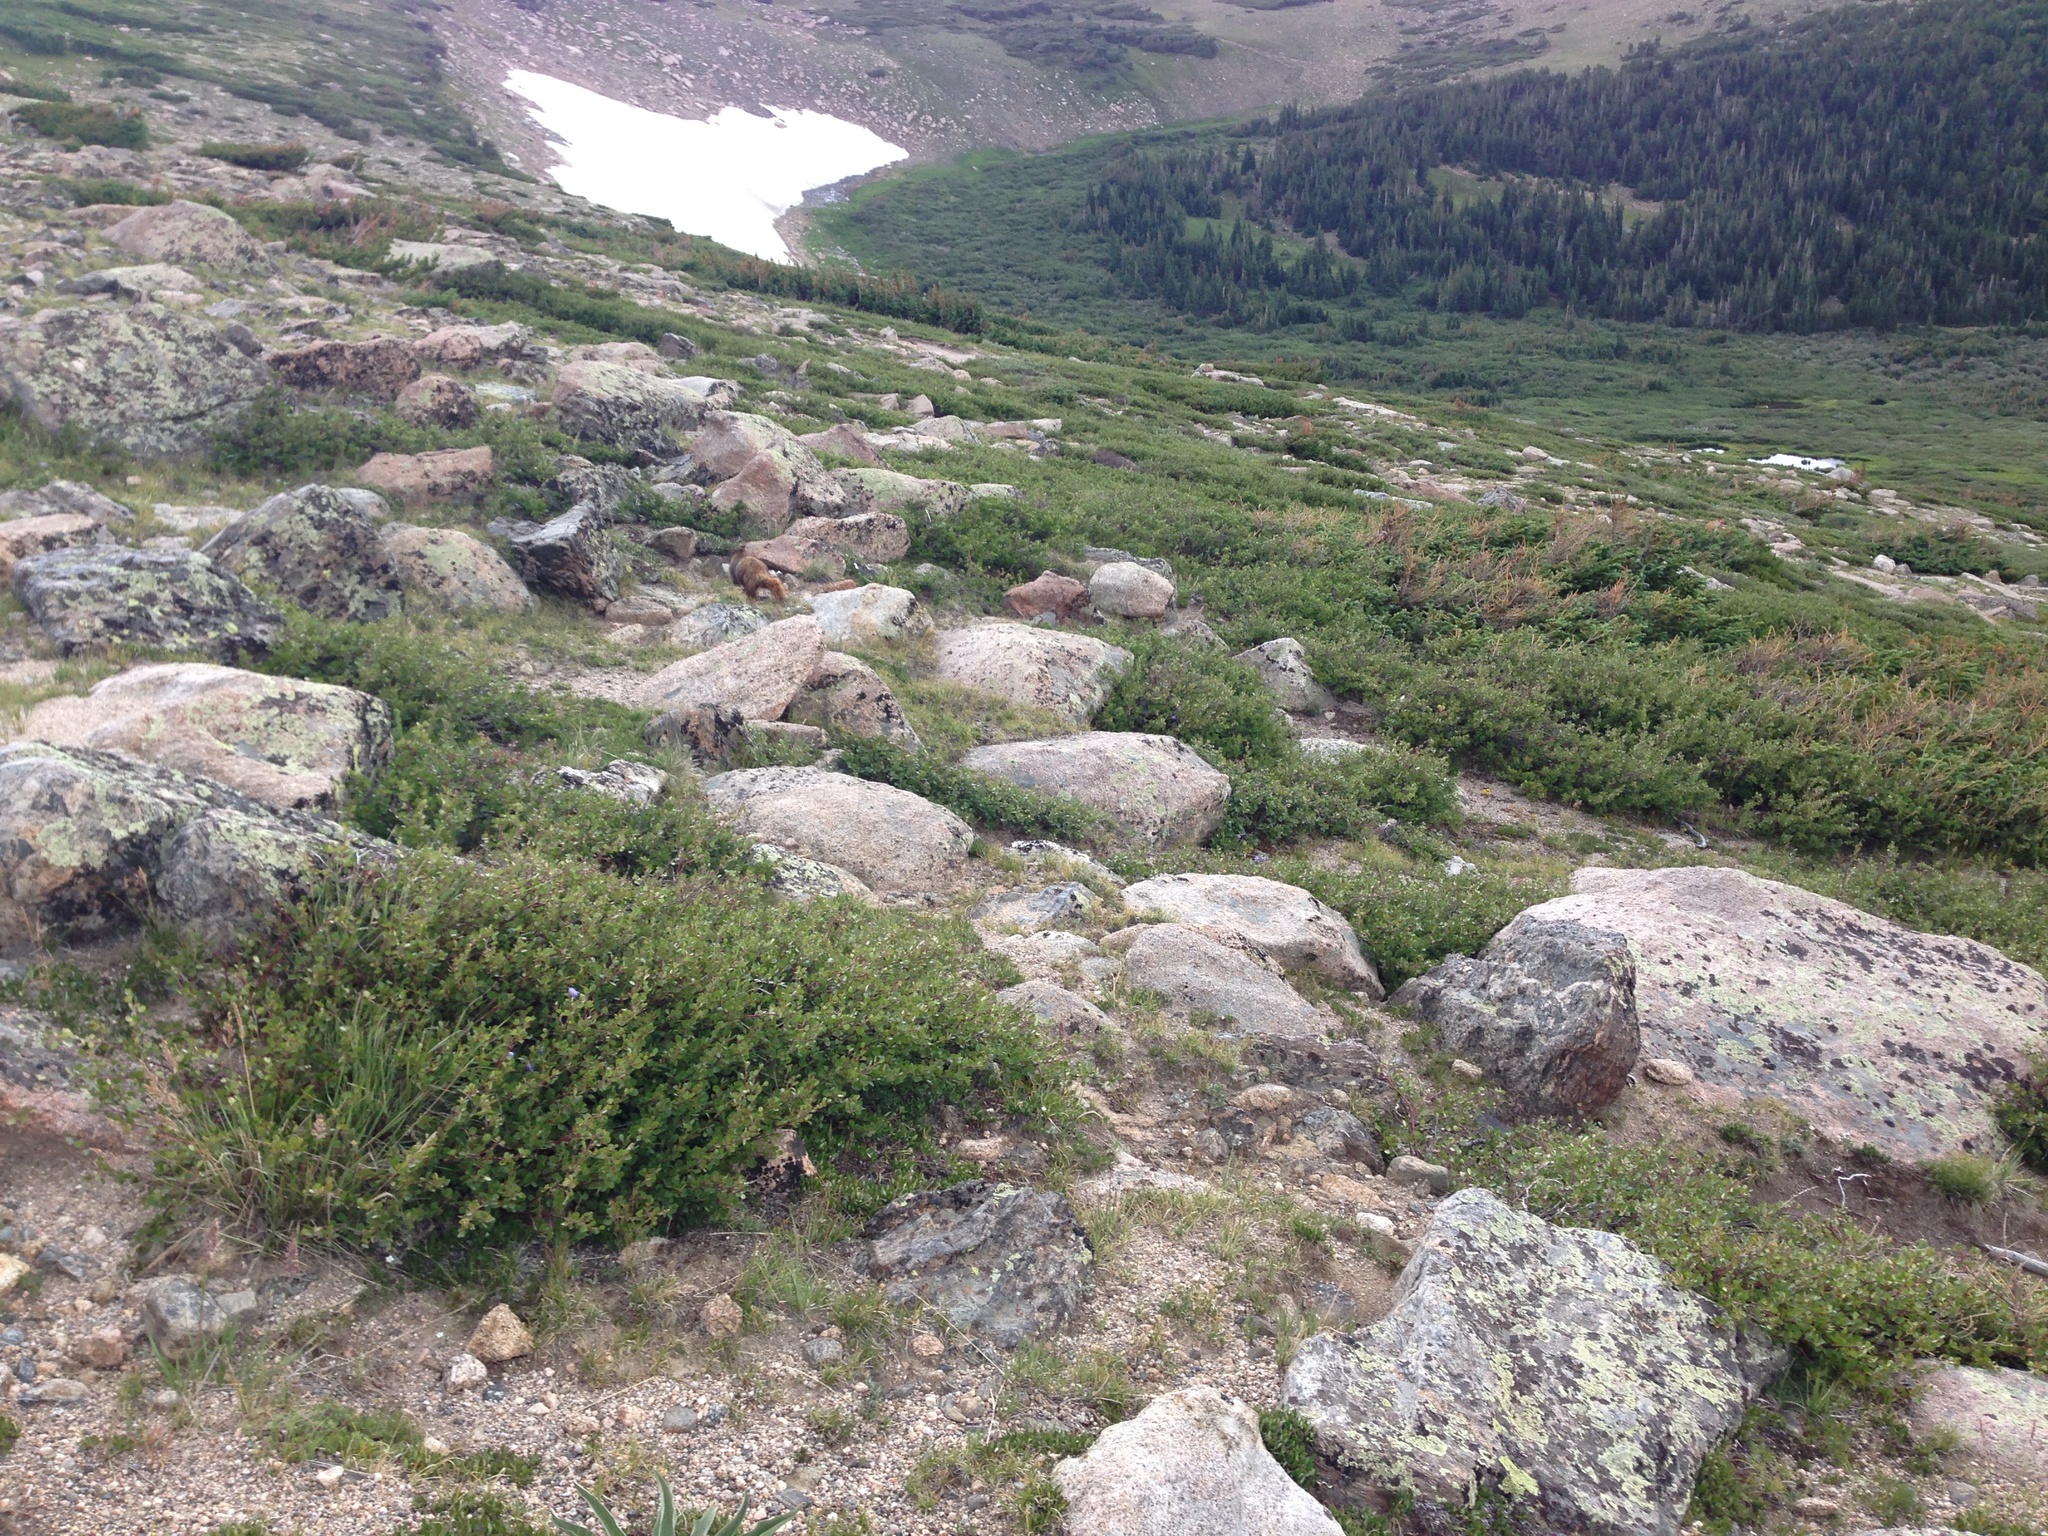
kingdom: Animalia
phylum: Chordata
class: Mammalia
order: Rodentia
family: Sciuridae
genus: Marmota
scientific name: Marmota flaviventris
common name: Yellow-bellied marmot
